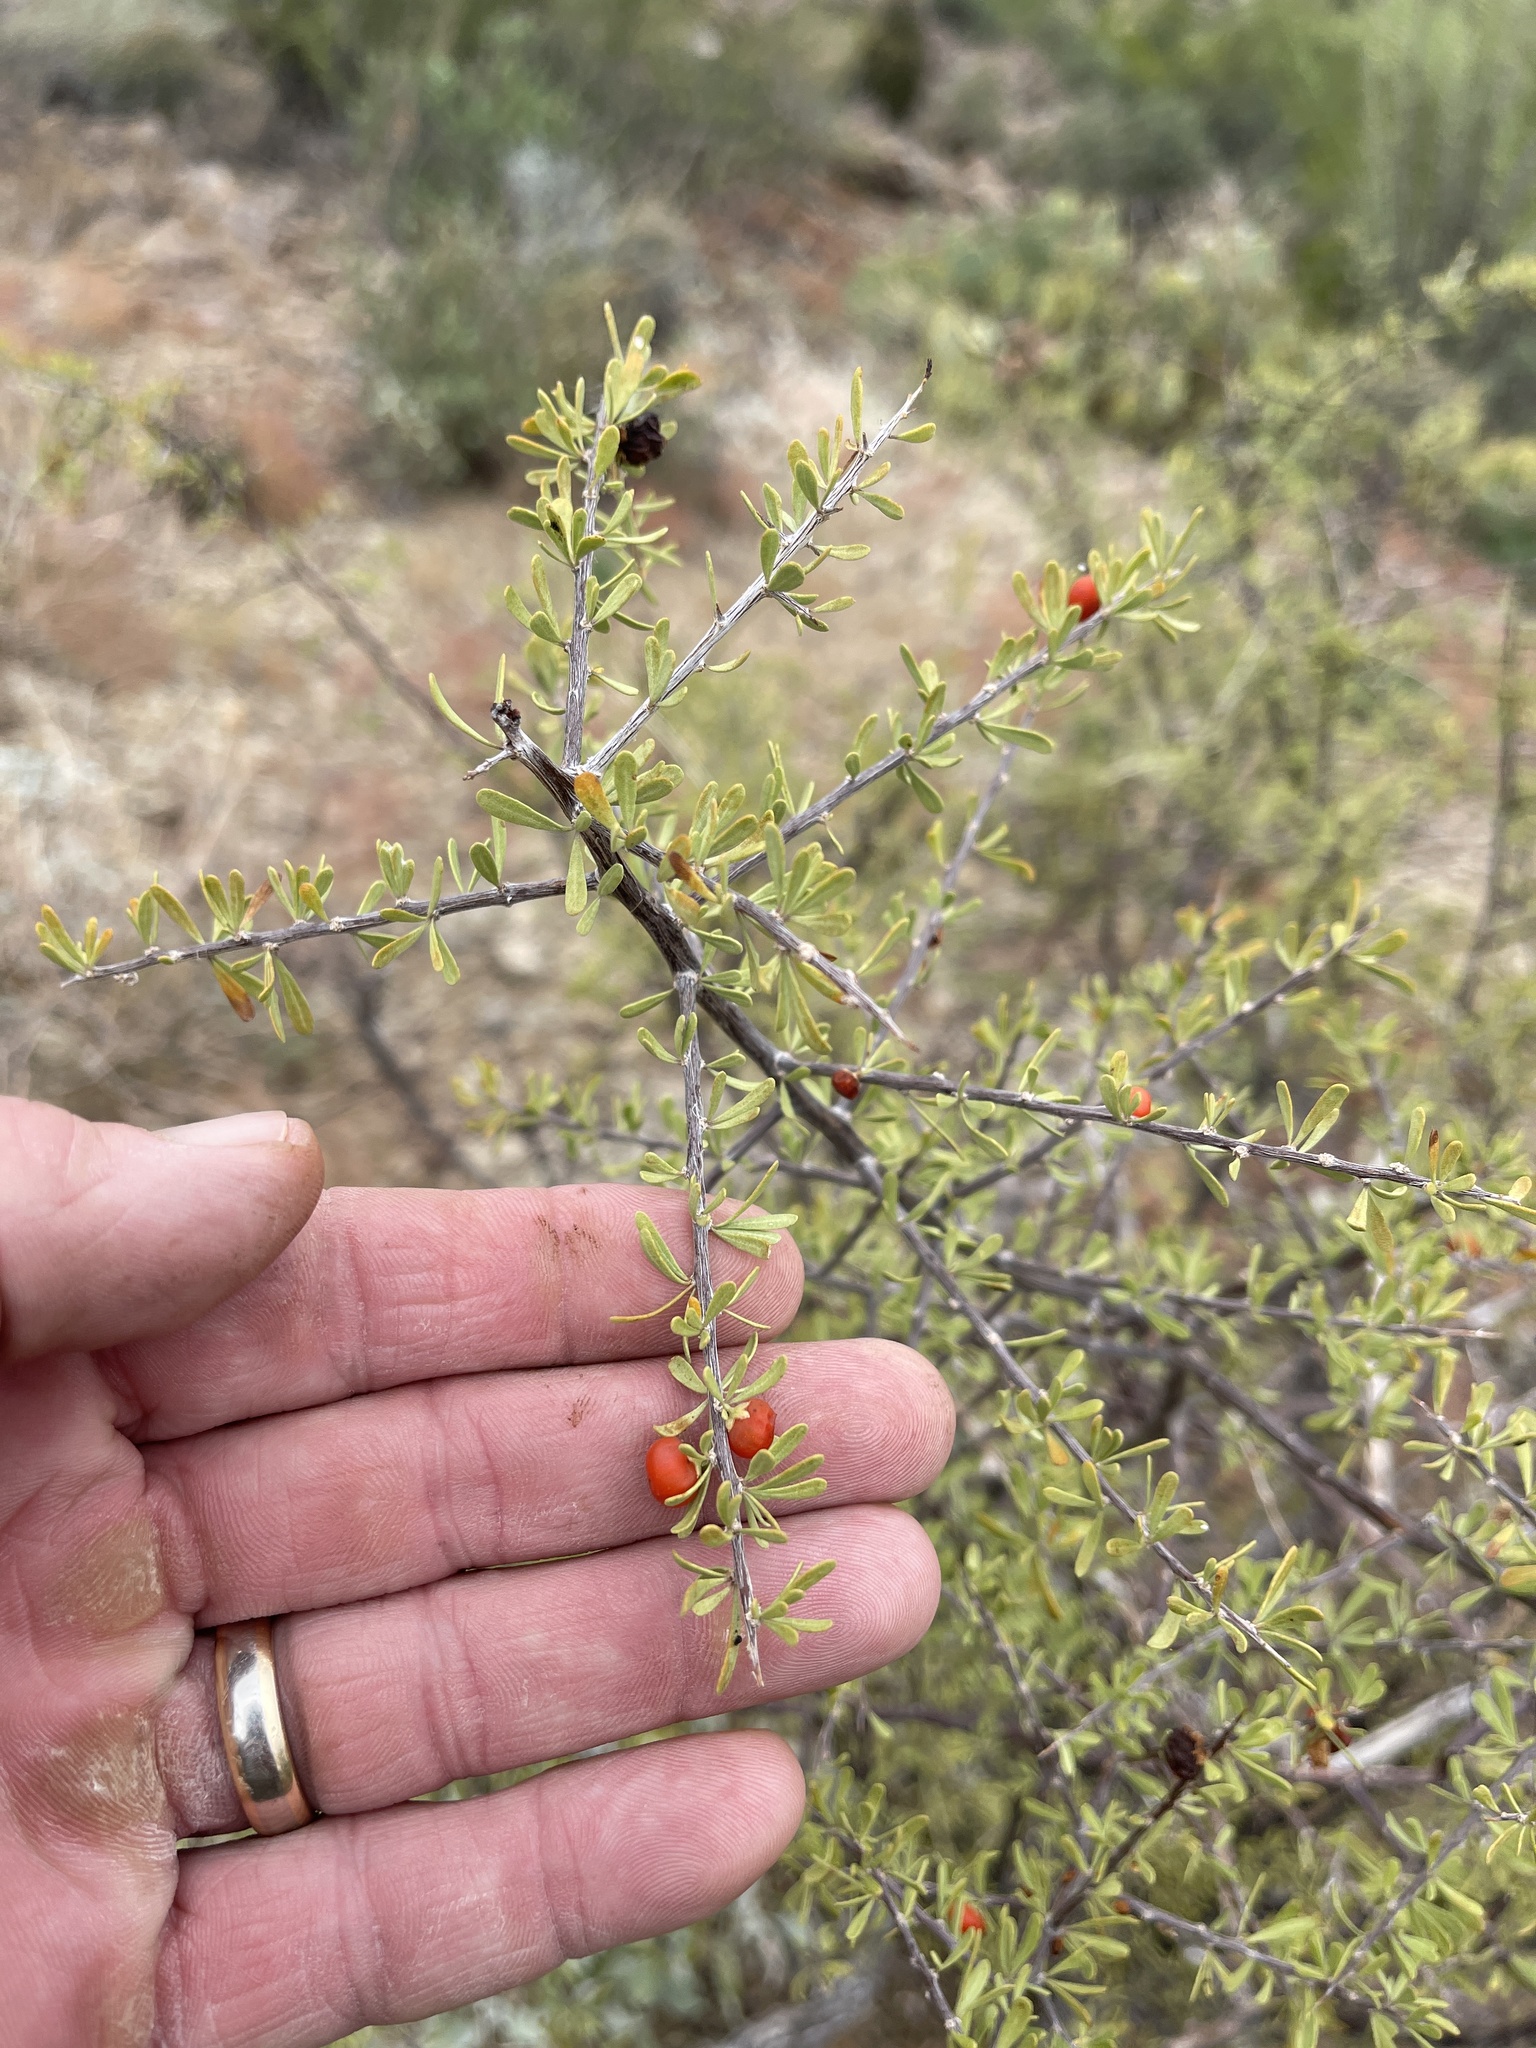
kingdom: Plantae
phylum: Tracheophyta
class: Magnoliopsida
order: Solanales
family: Solanaceae
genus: Lycium
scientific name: Lycium berlandieri
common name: Berlandier wolfberry
